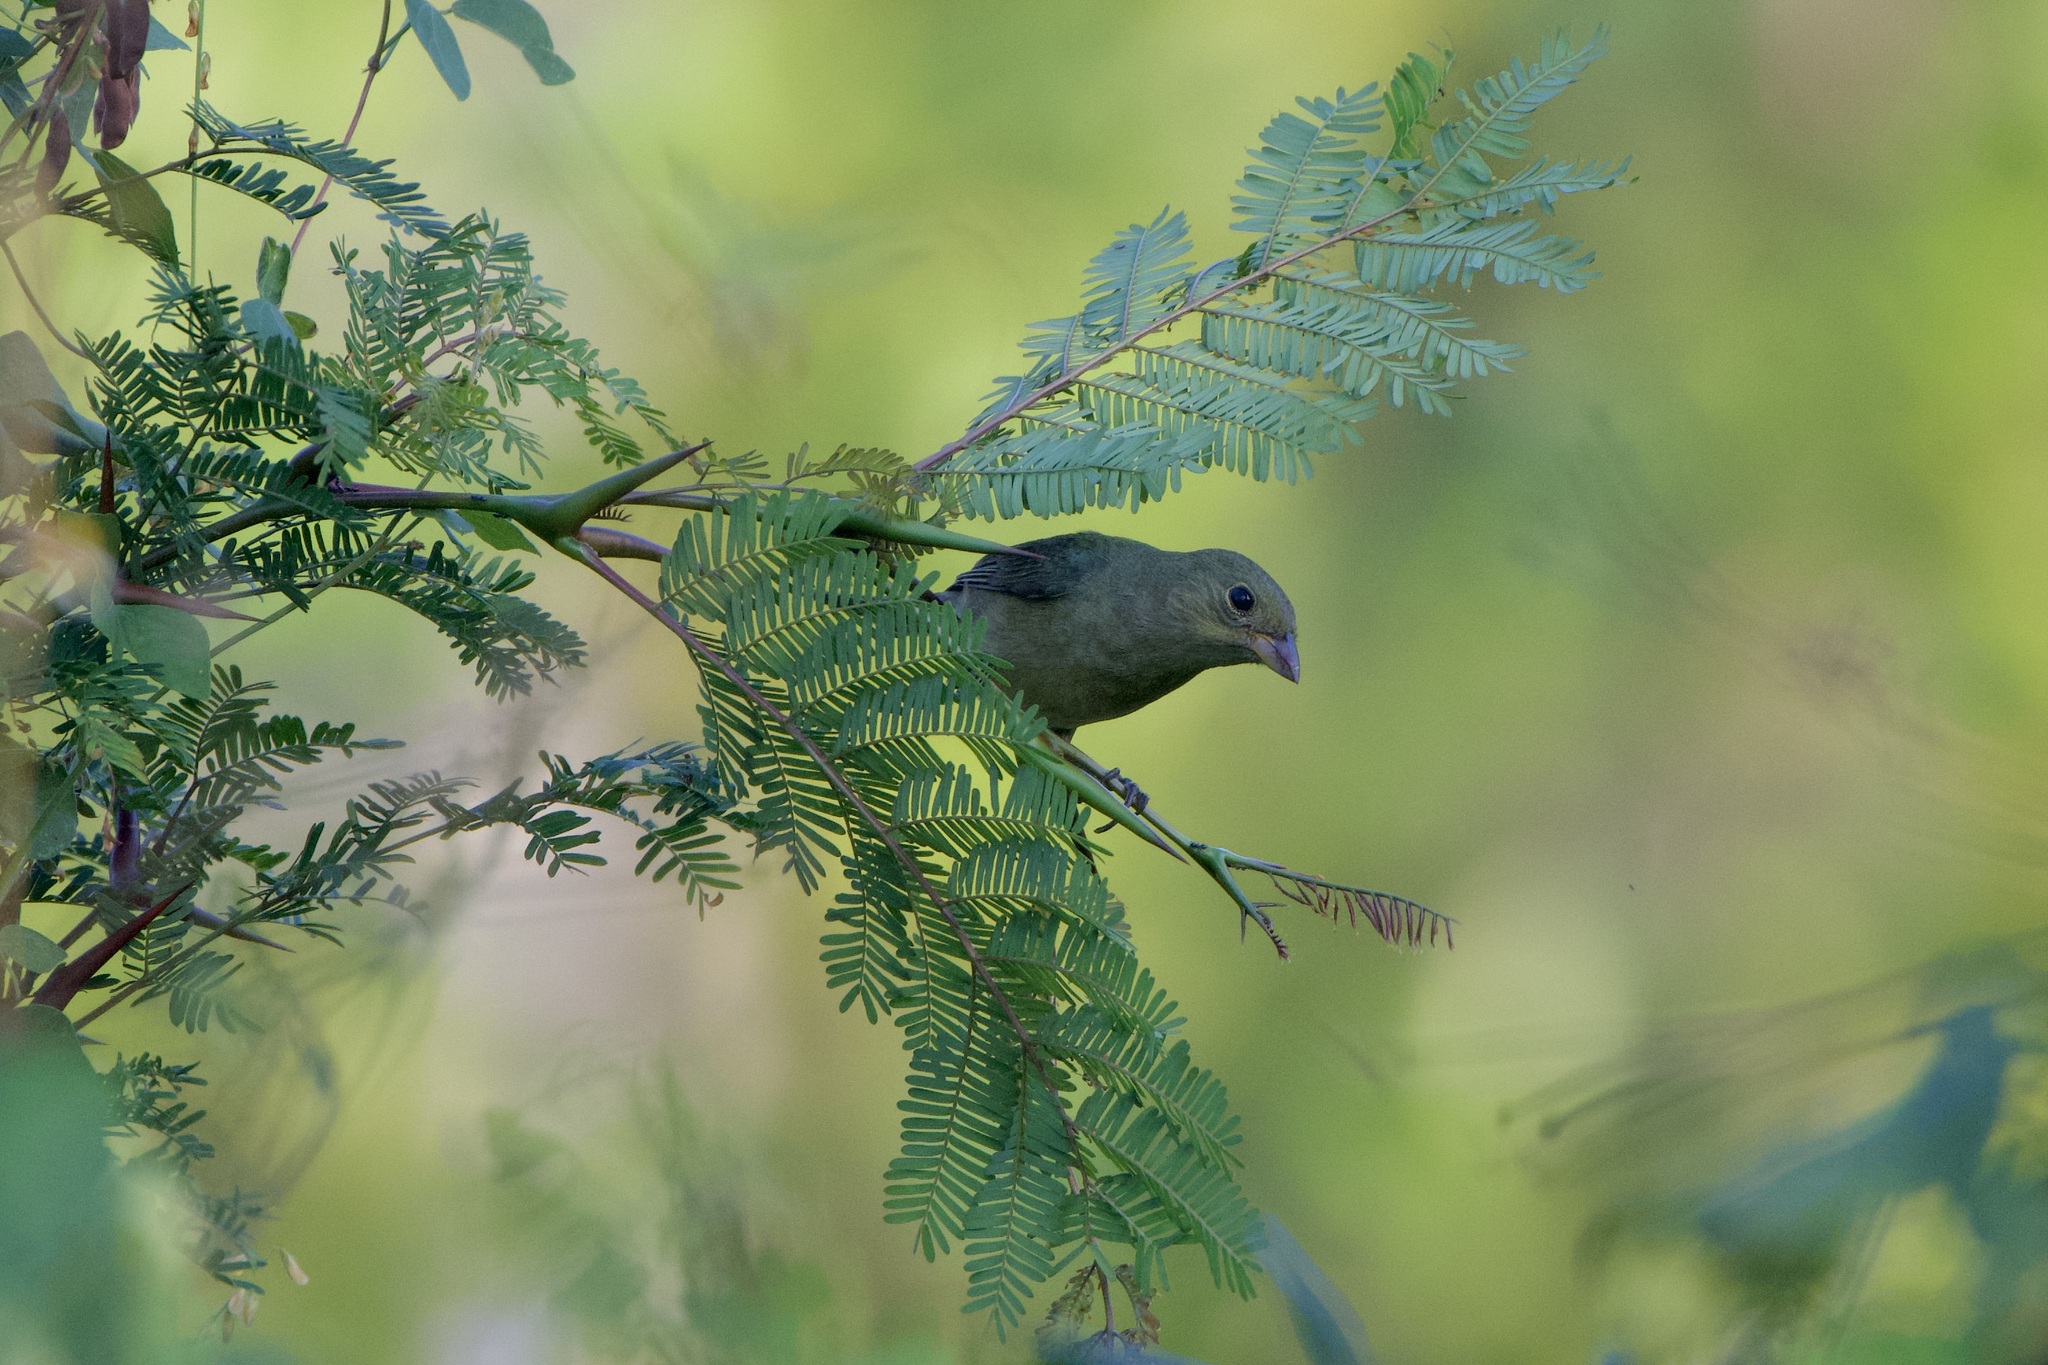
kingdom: Animalia
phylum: Chordata
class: Aves
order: Passeriformes
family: Cardinalidae
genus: Passerina
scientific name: Passerina ciris
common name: Painted bunting
